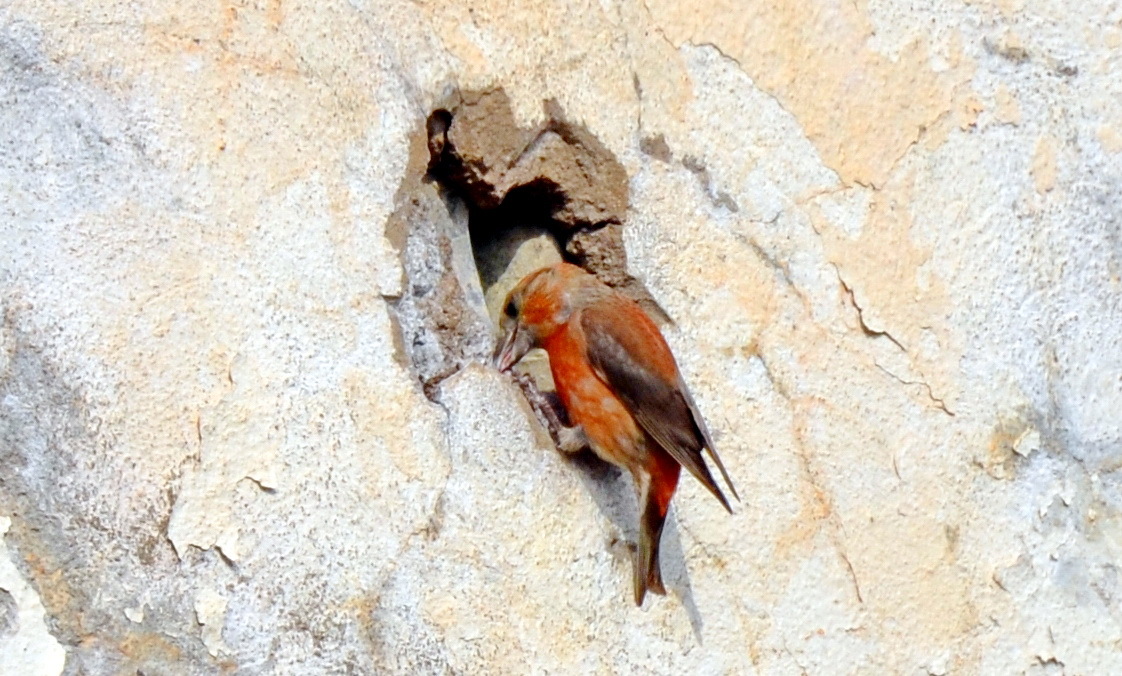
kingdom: Animalia
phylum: Chordata
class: Aves
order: Passeriformes
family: Fringillidae
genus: Loxia
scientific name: Loxia curvirostra
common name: Red crossbill
